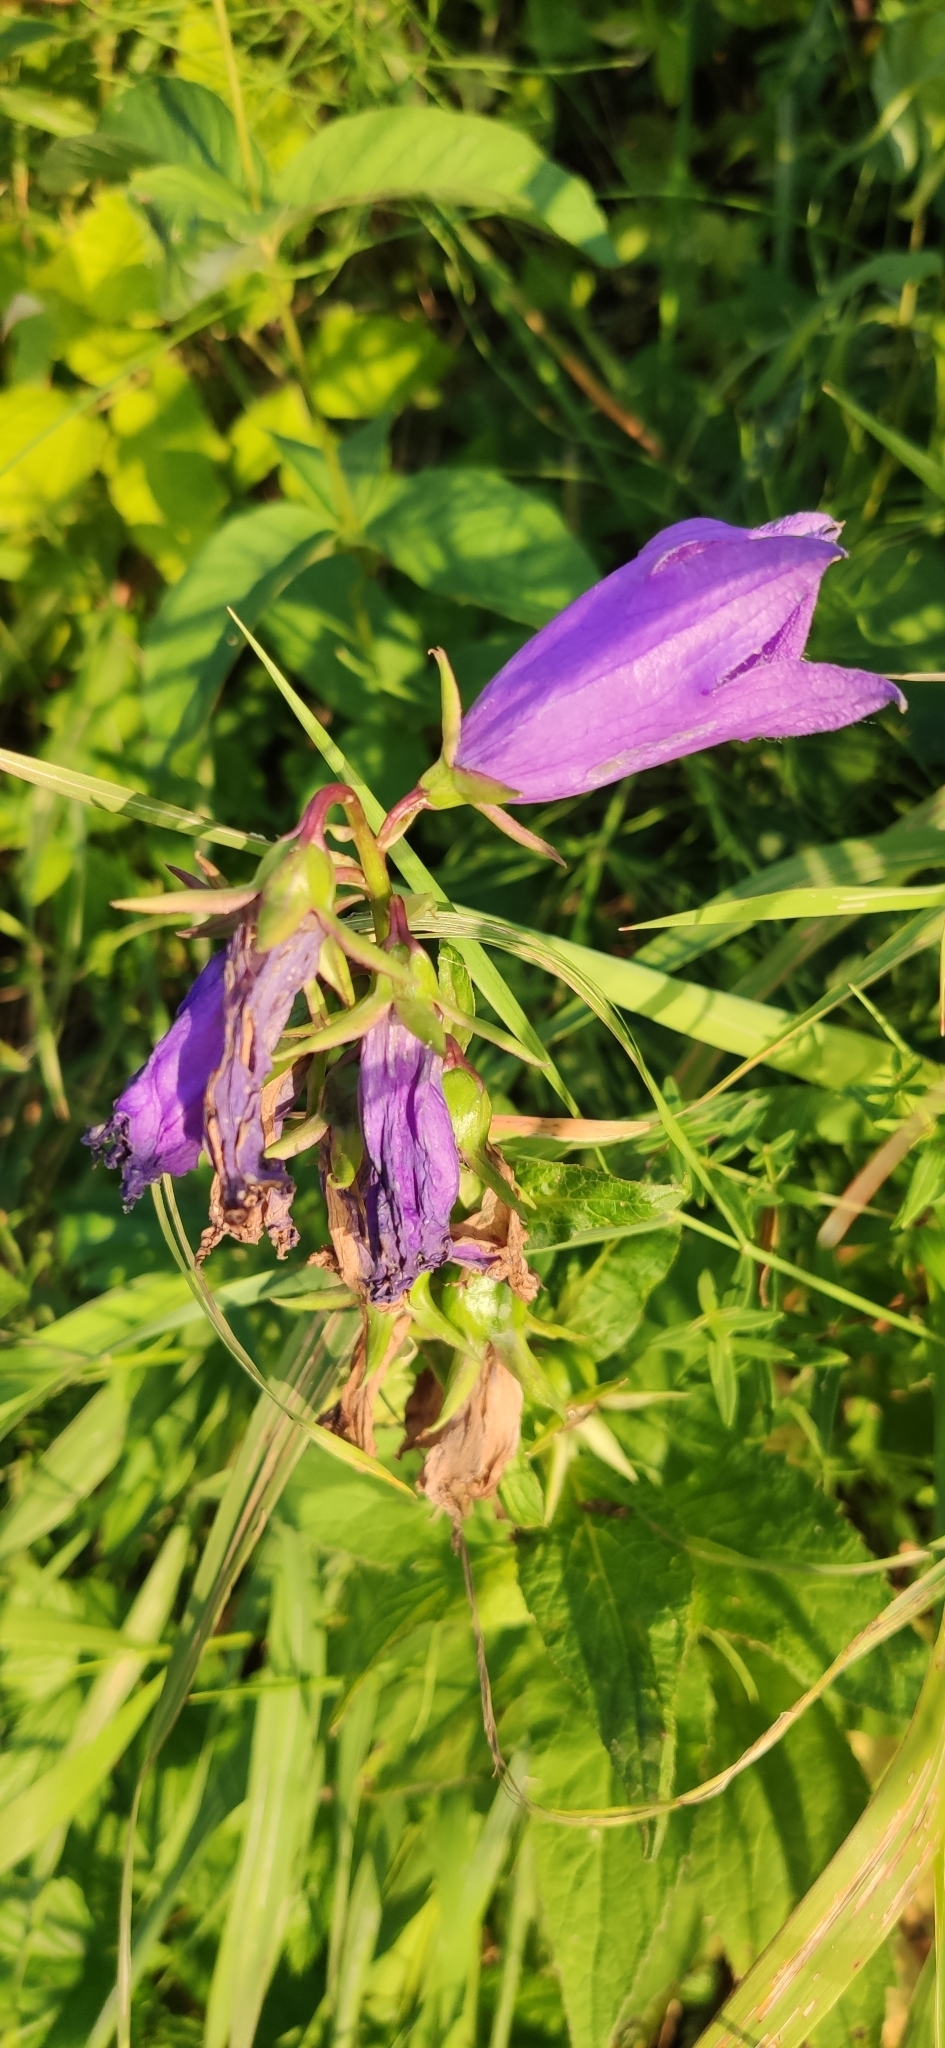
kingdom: Plantae
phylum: Tracheophyta
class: Magnoliopsida
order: Asterales
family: Campanulaceae
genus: Campanula
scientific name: Campanula latifolia
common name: Giant bellflower
